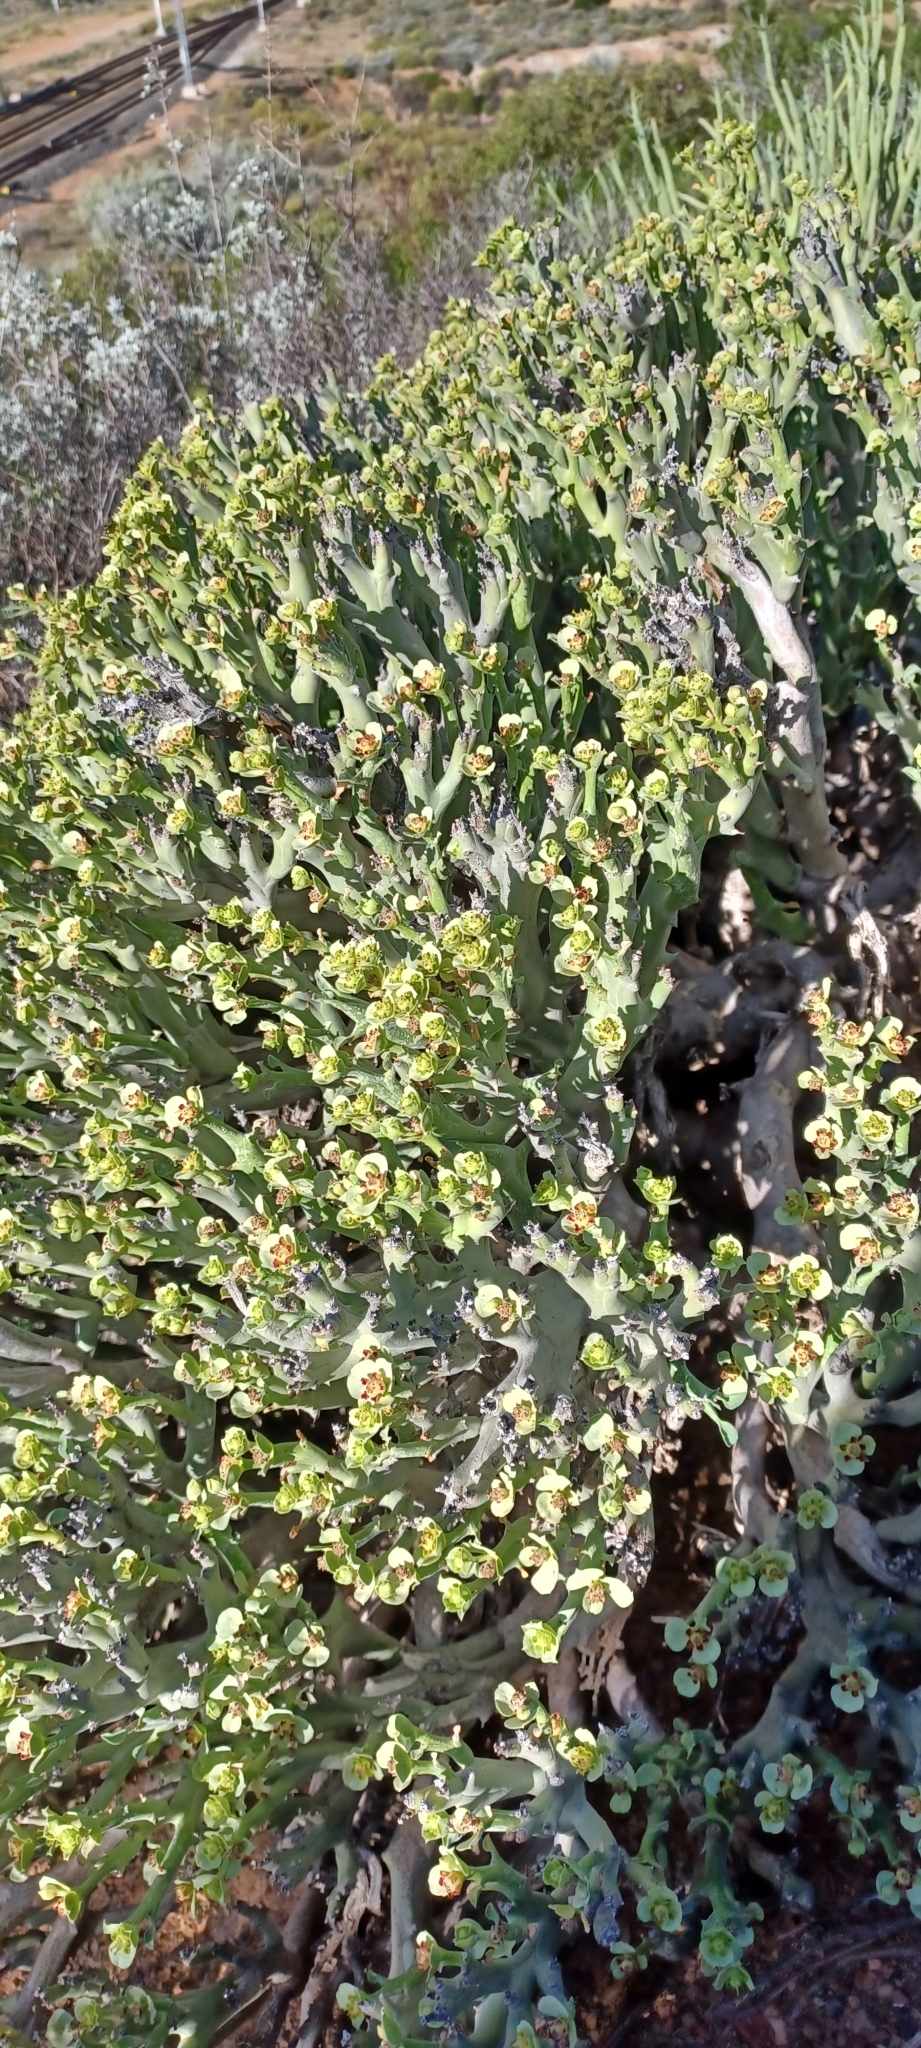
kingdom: Plantae
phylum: Tracheophyta
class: Magnoliopsida
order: Malpighiales
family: Euphorbiaceae
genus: Euphorbia
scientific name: Euphorbia hamata
